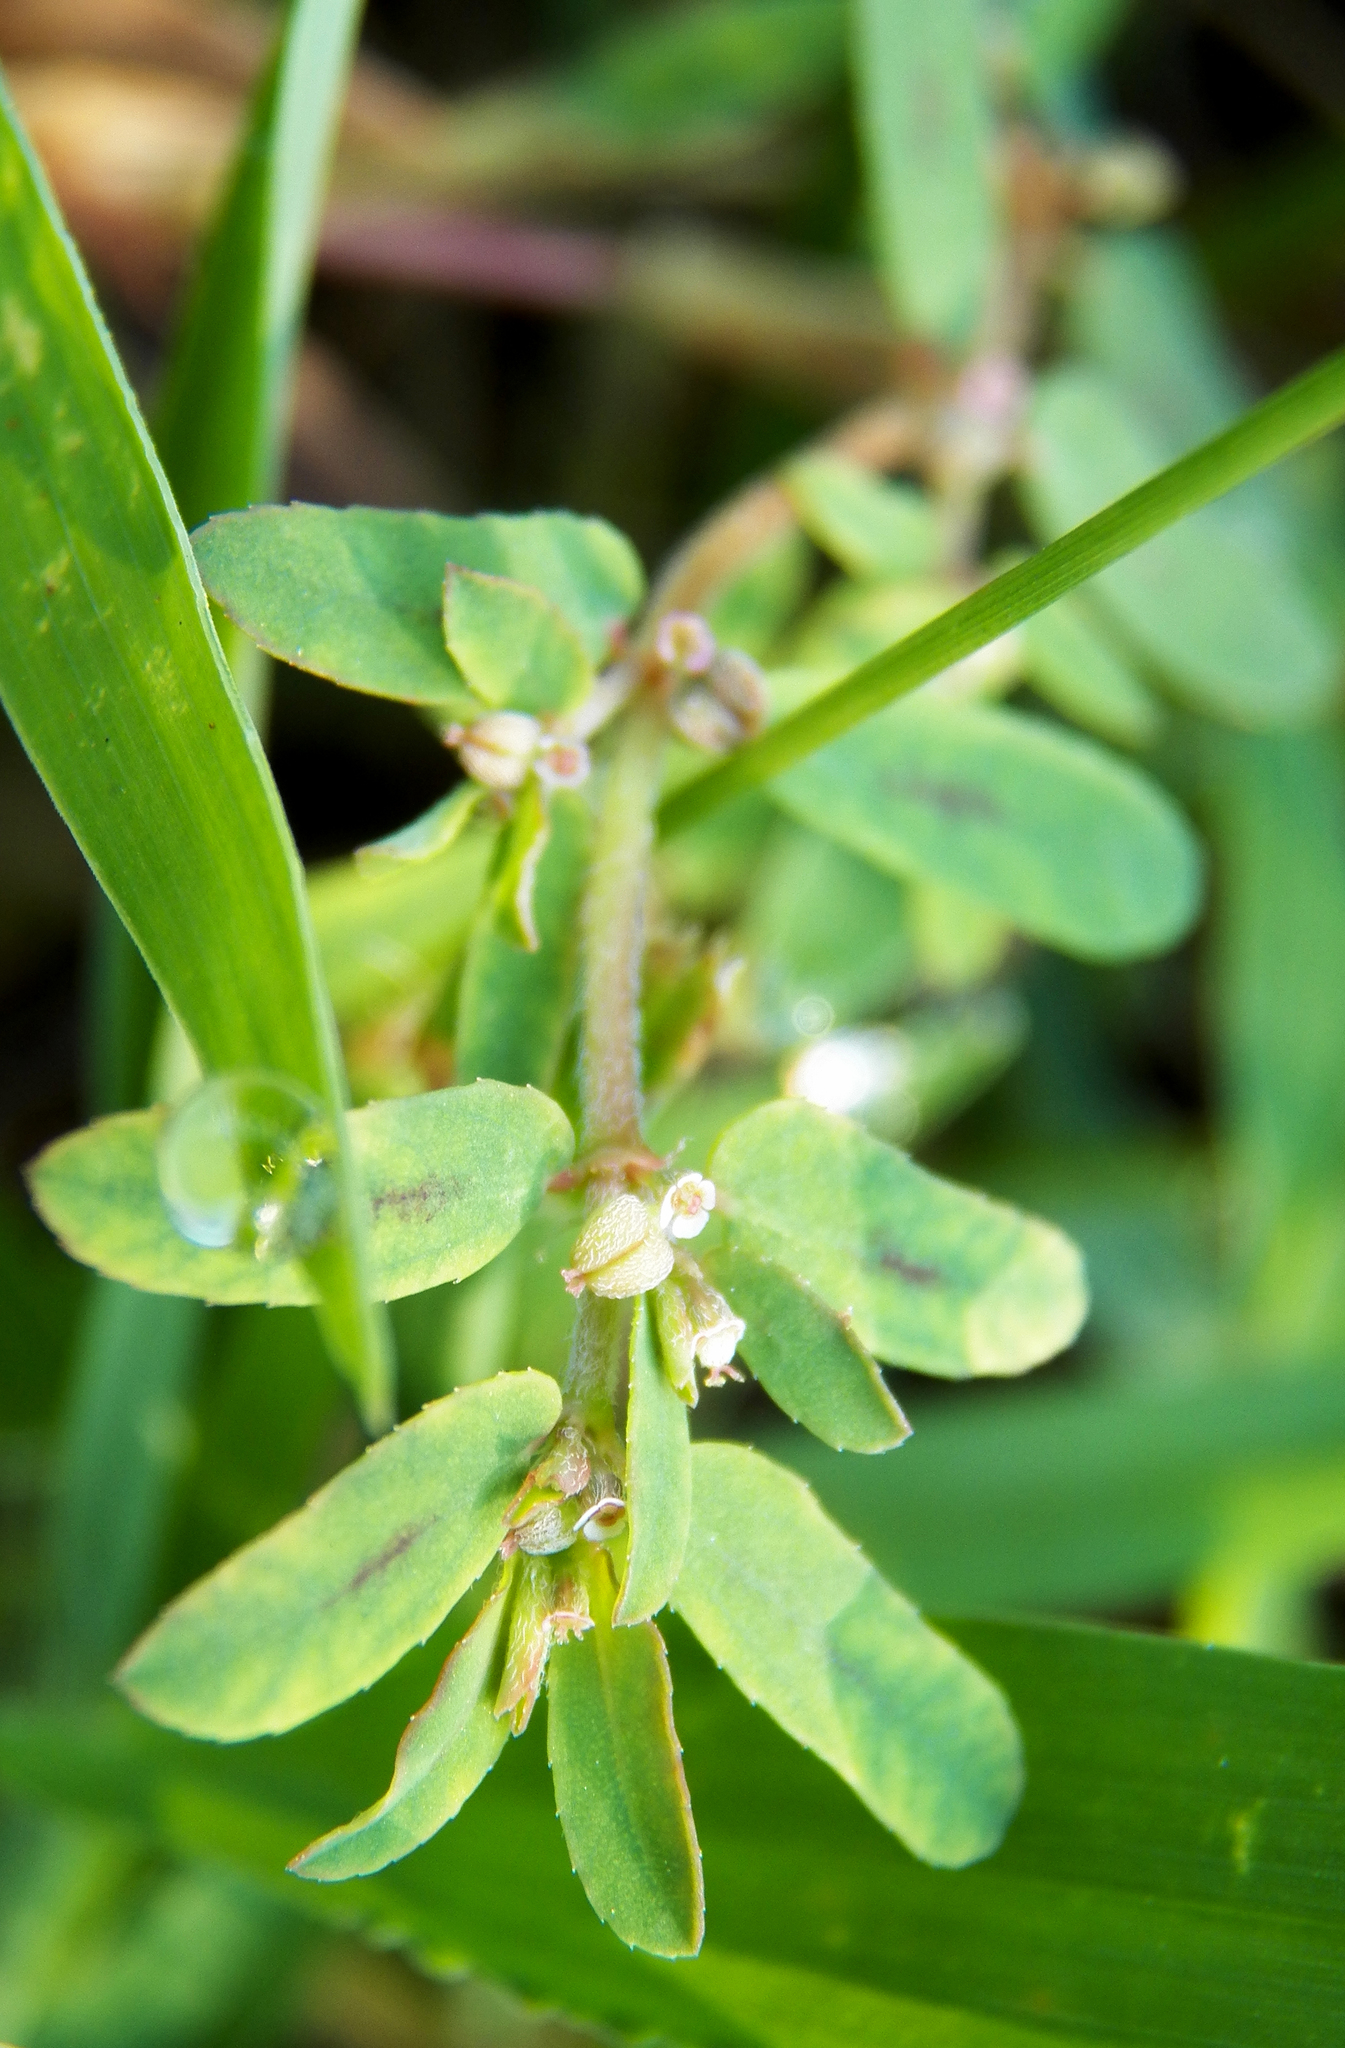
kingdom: Plantae
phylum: Tracheophyta
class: Magnoliopsida
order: Malpighiales
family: Euphorbiaceae
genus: Euphorbia
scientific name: Euphorbia maculata
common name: Spotted spurge
